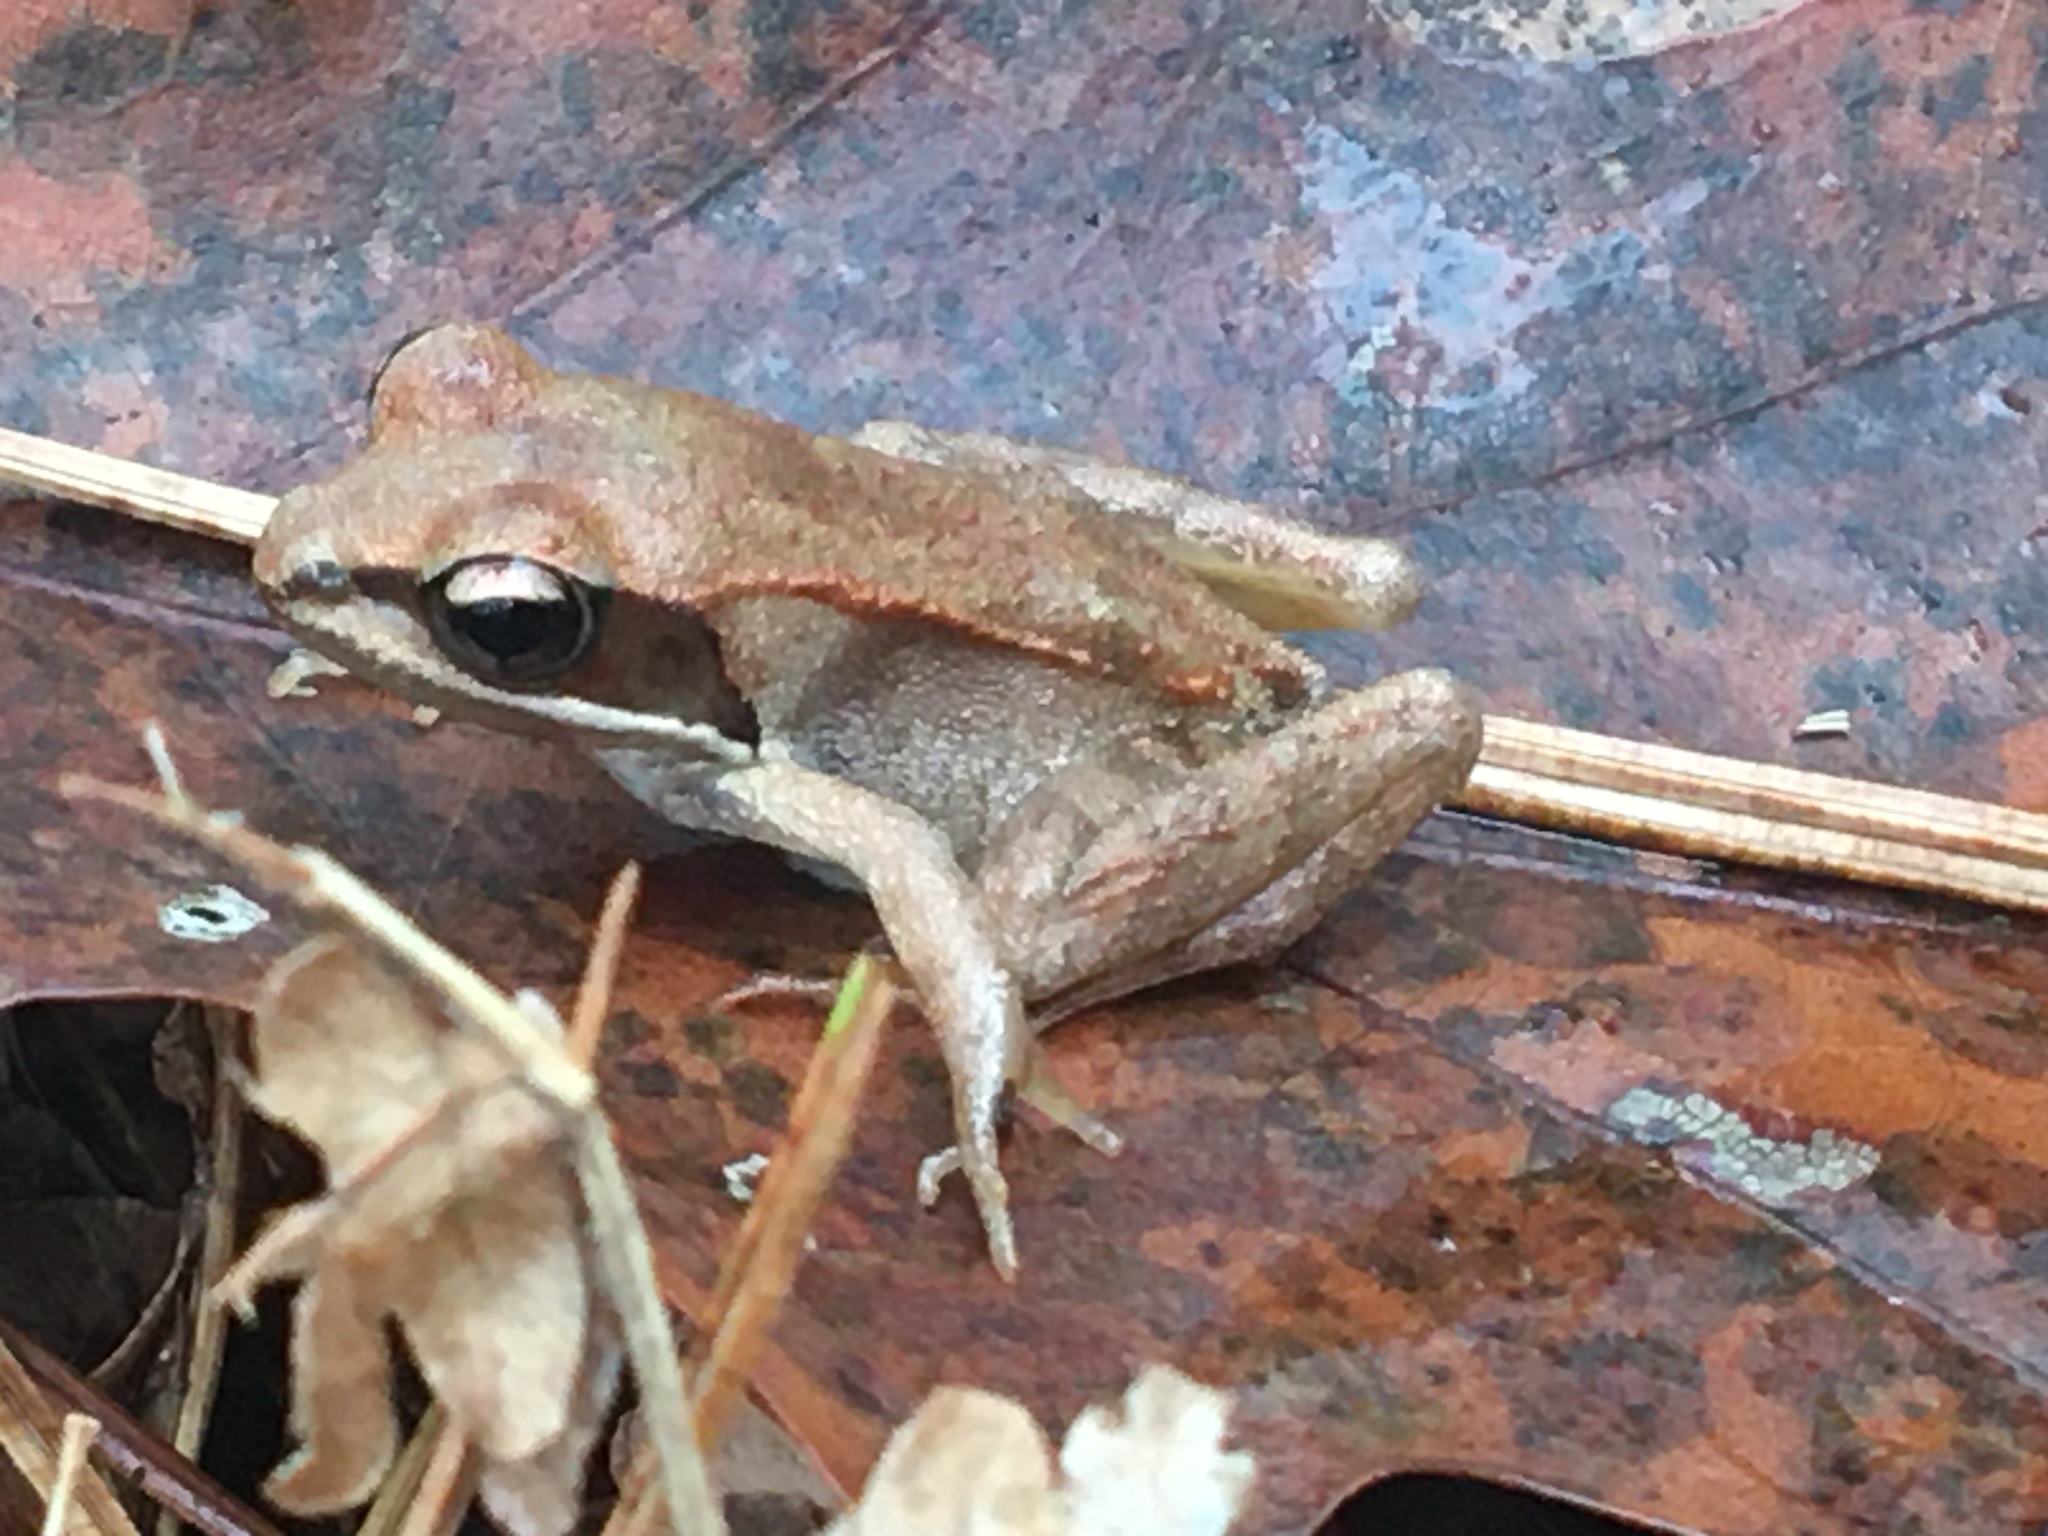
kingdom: Animalia
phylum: Chordata
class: Amphibia
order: Anura
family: Ranidae
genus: Lithobates
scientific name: Lithobates sylvaticus
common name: Wood frog
